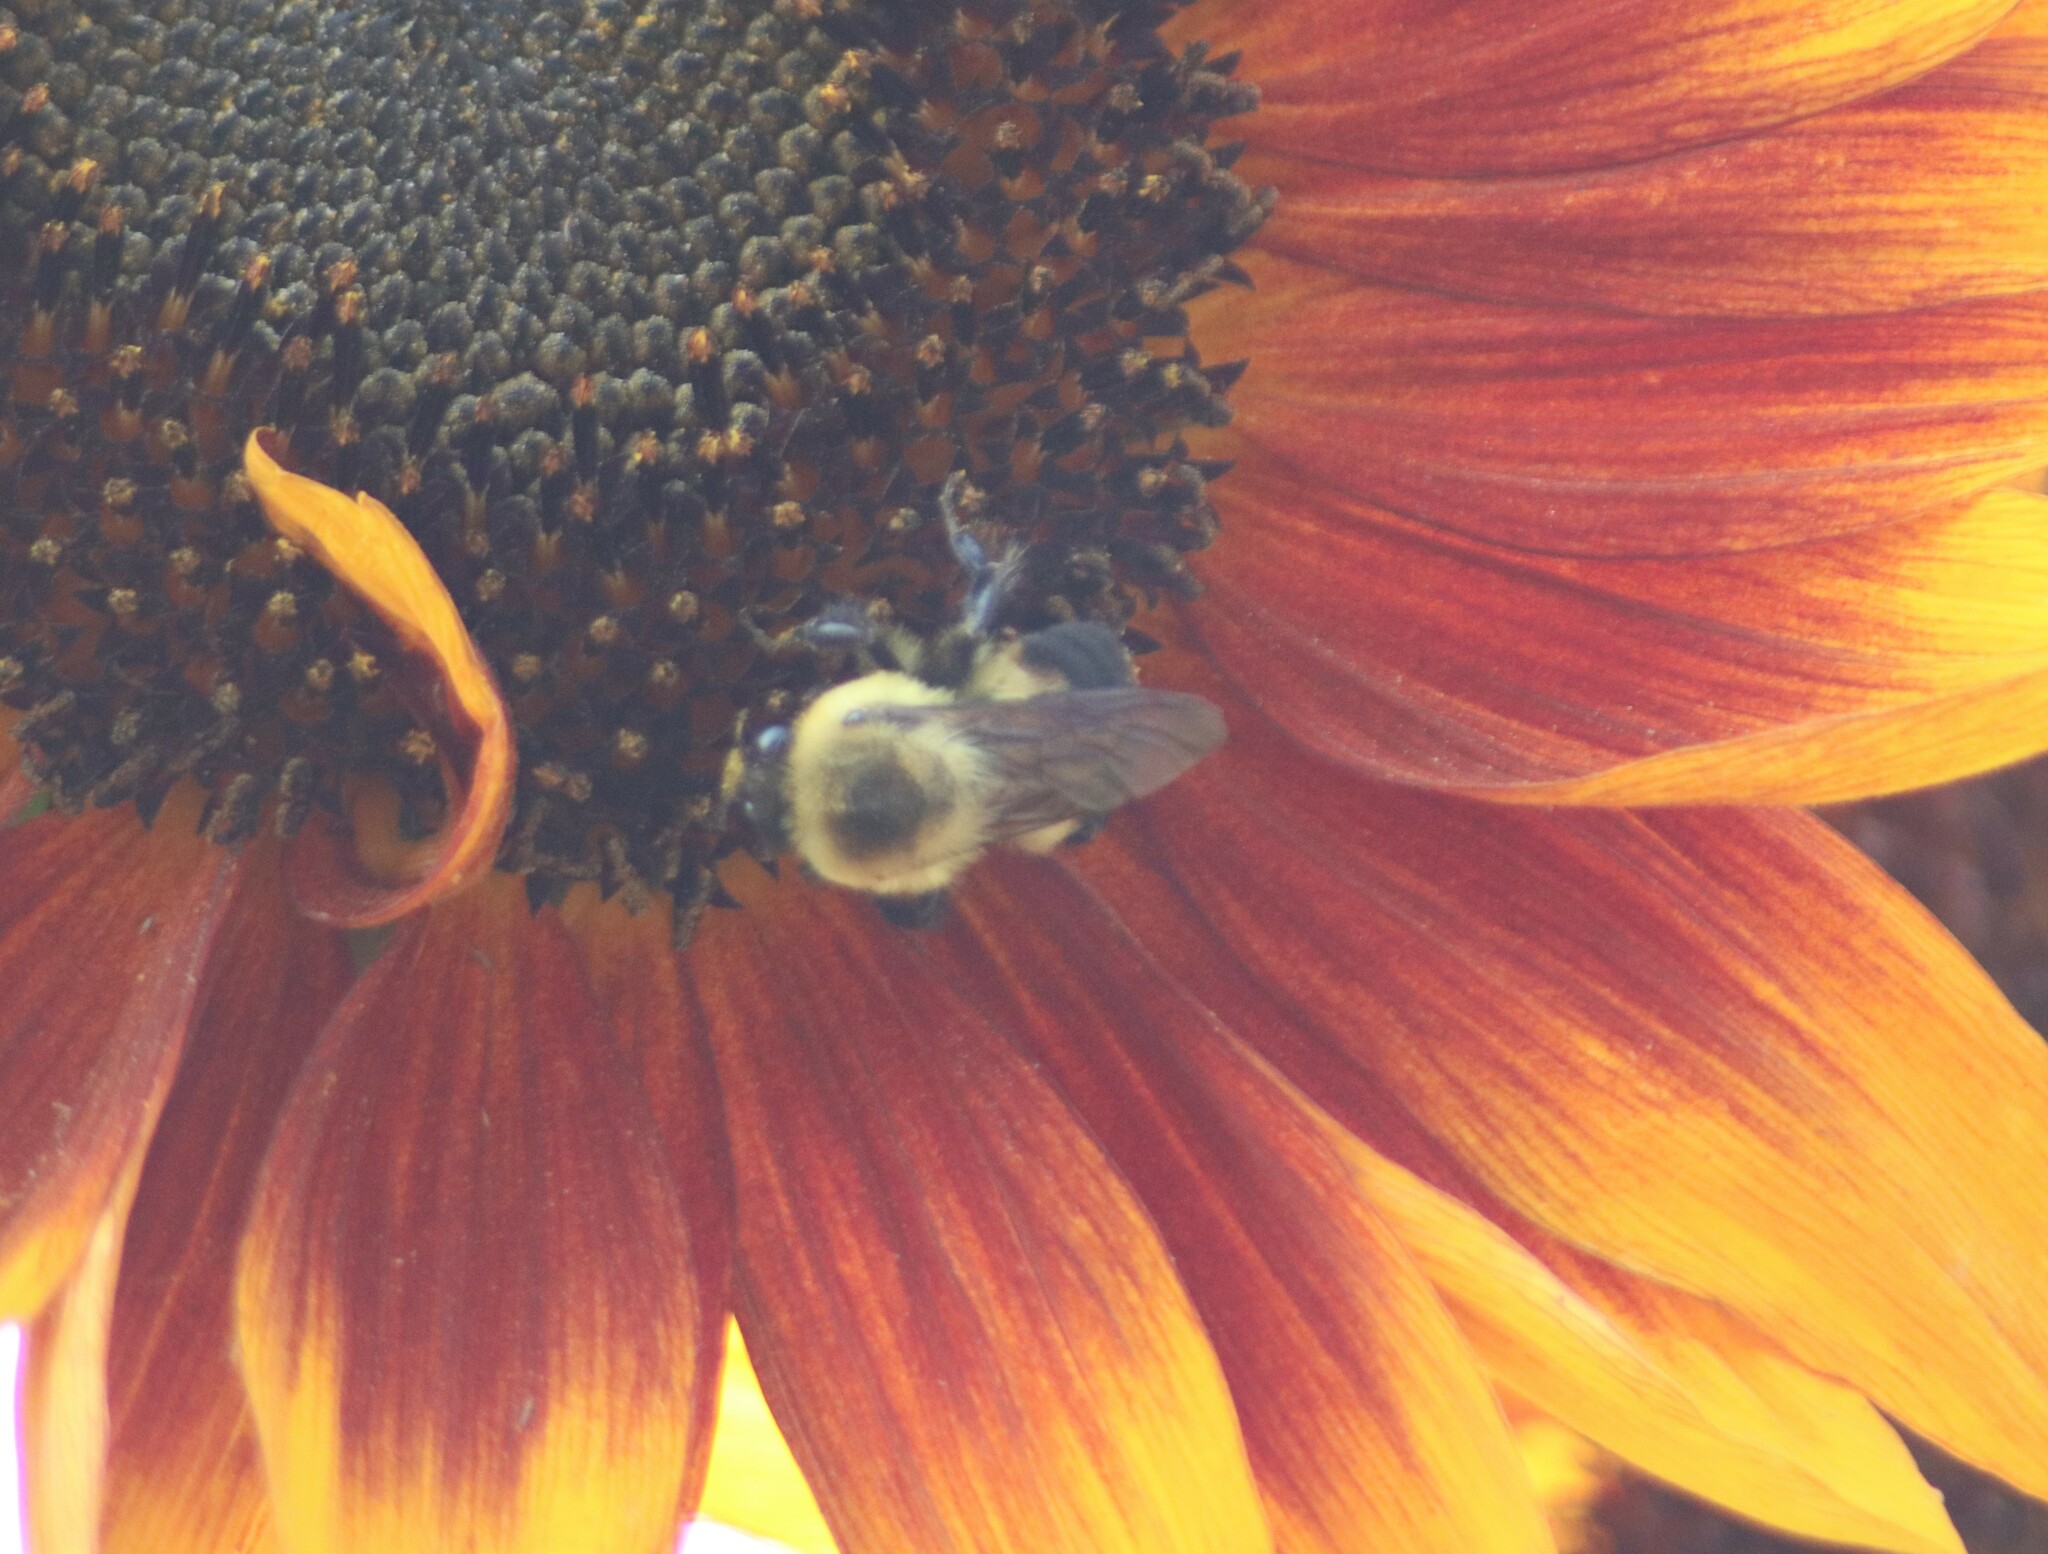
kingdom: Animalia
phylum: Arthropoda
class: Insecta
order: Hymenoptera
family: Apidae
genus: Bombus
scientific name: Bombus griseocollis
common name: Brown-belted bumble bee
